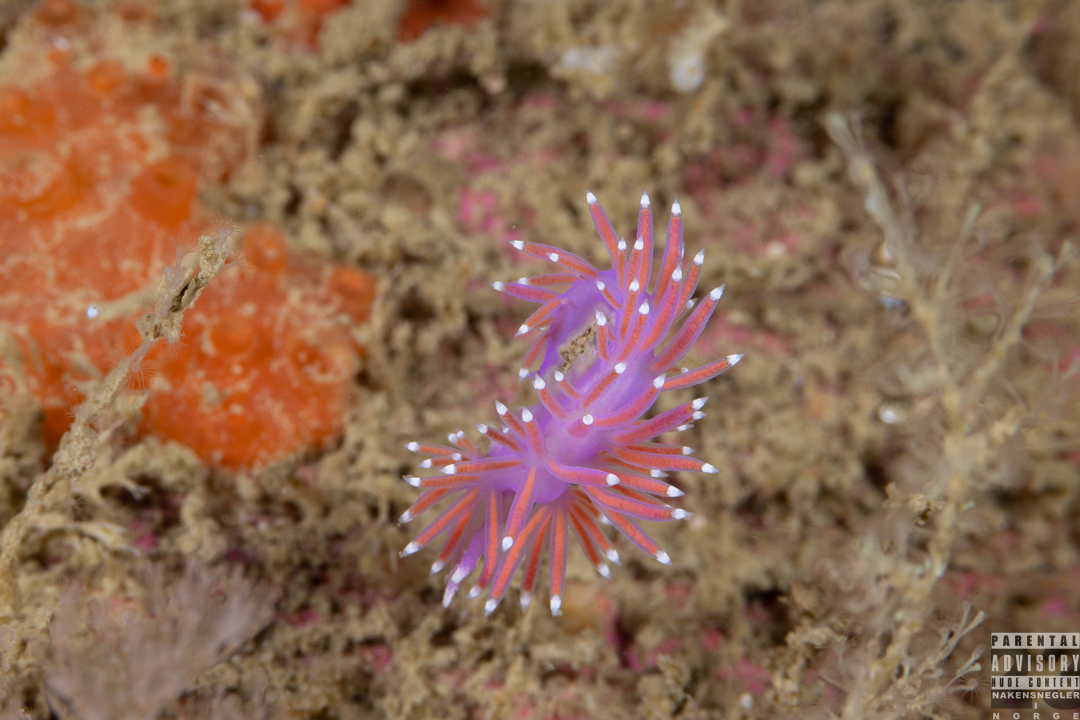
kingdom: Animalia
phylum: Mollusca
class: Gastropoda
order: Nudibranchia
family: Flabellinidae
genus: Edmundsella
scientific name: Edmundsella pedata
